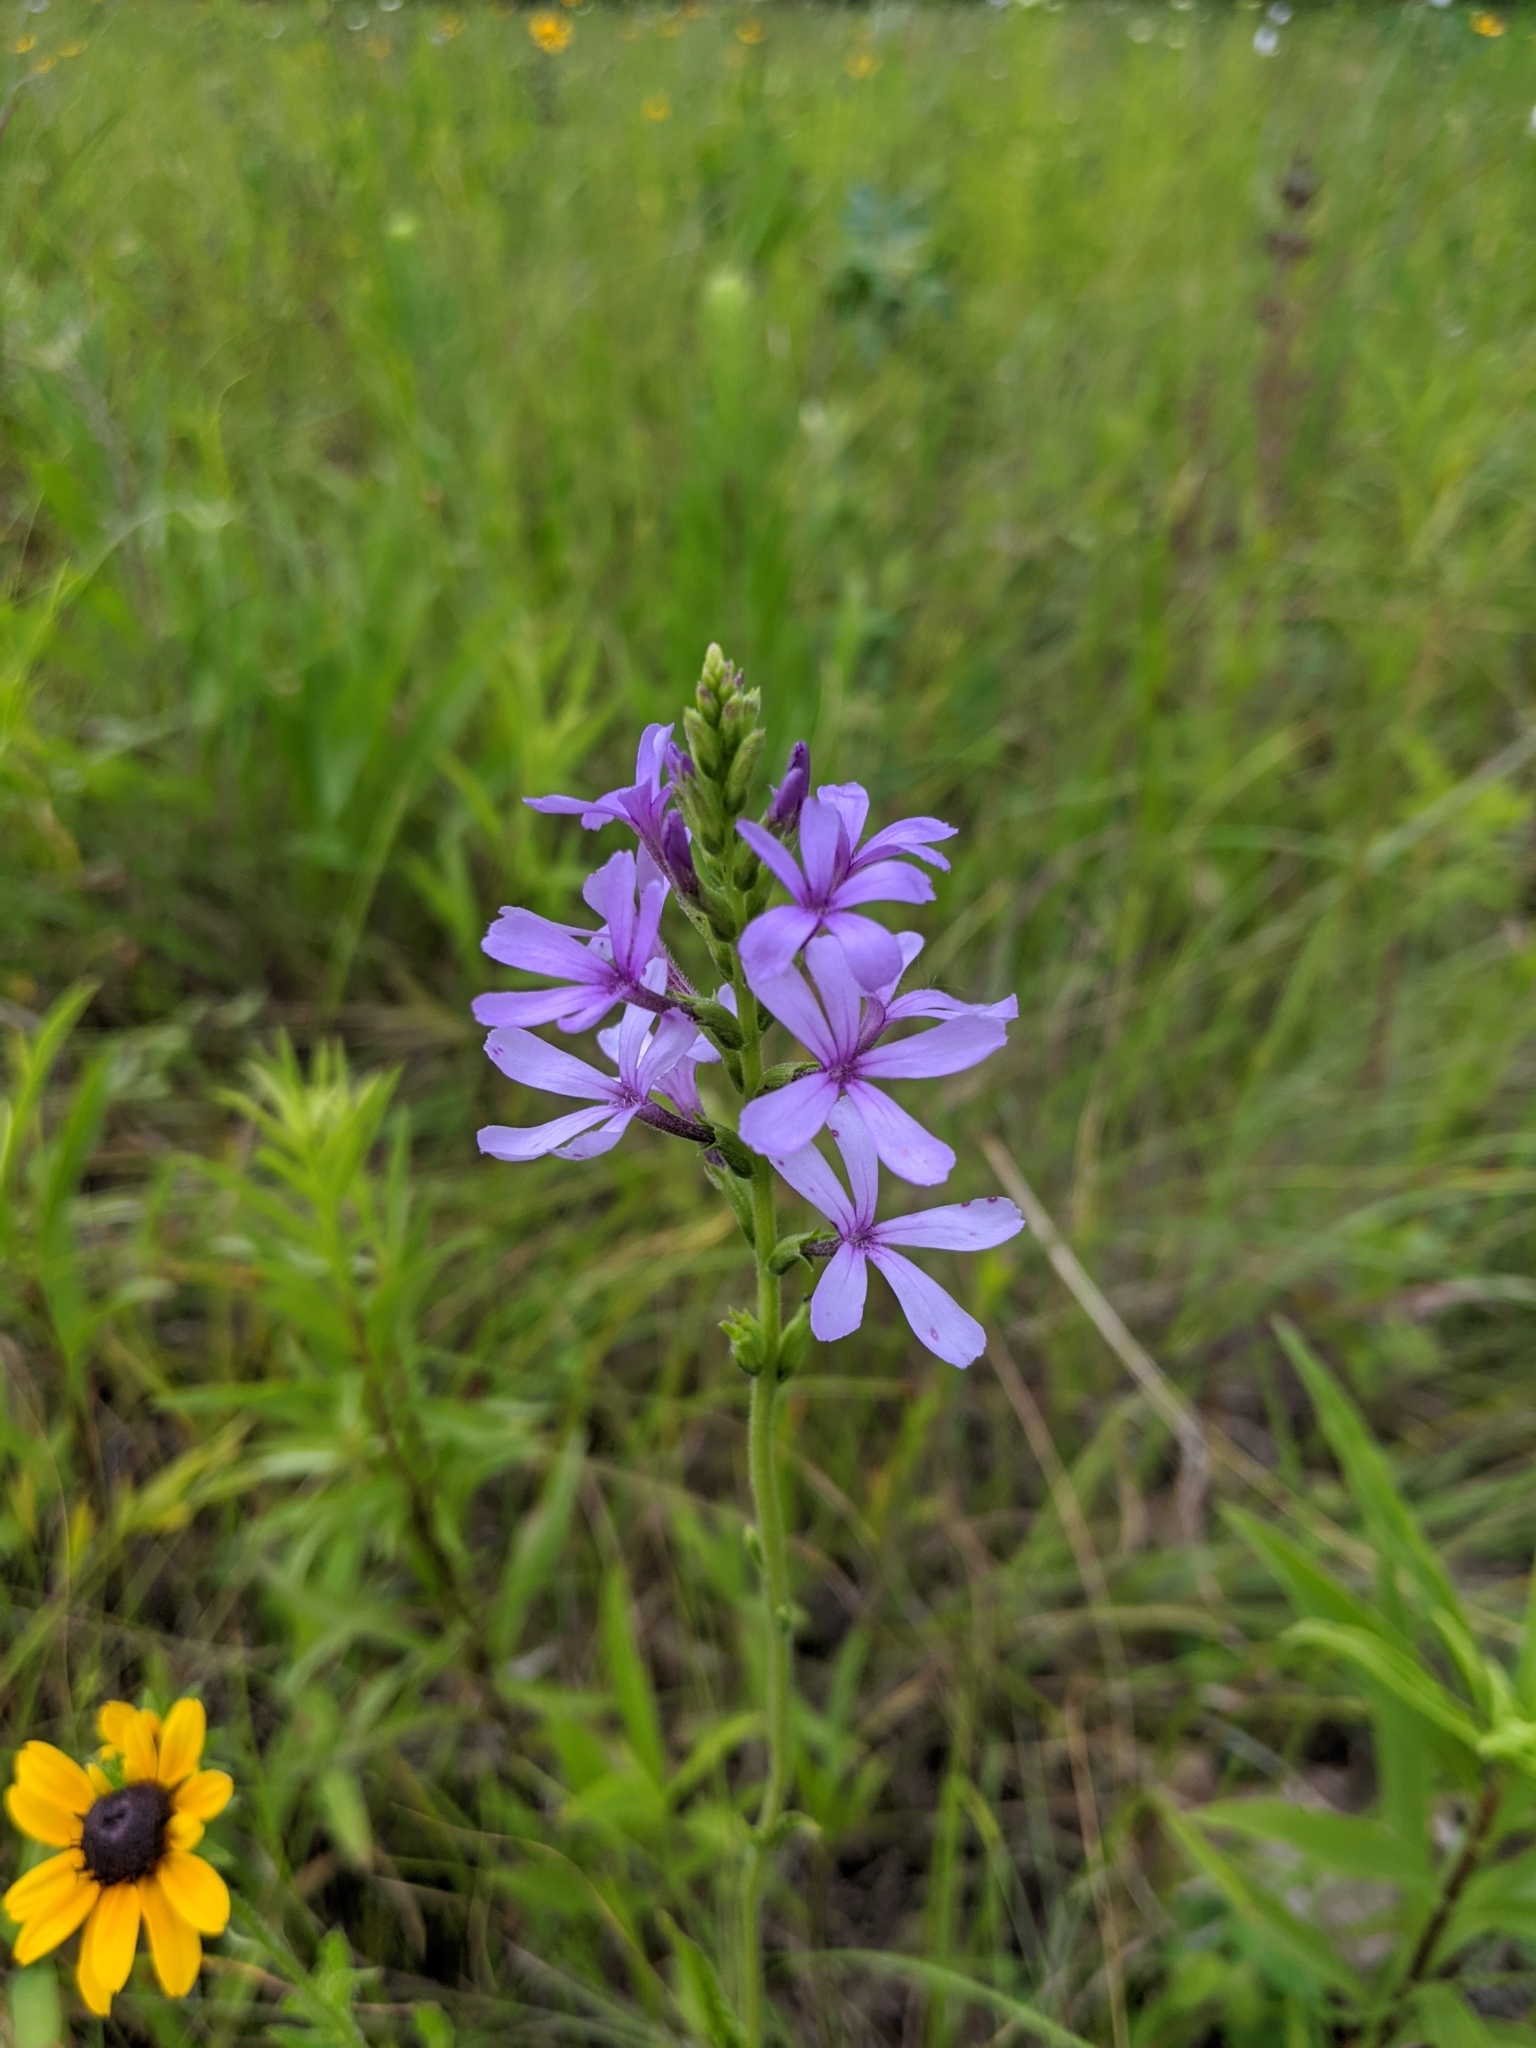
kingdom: Plantae
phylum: Tracheophyta
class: Magnoliopsida
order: Lamiales
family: Orobanchaceae
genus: Buchnera
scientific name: Buchnera americana
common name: American bluehearts
